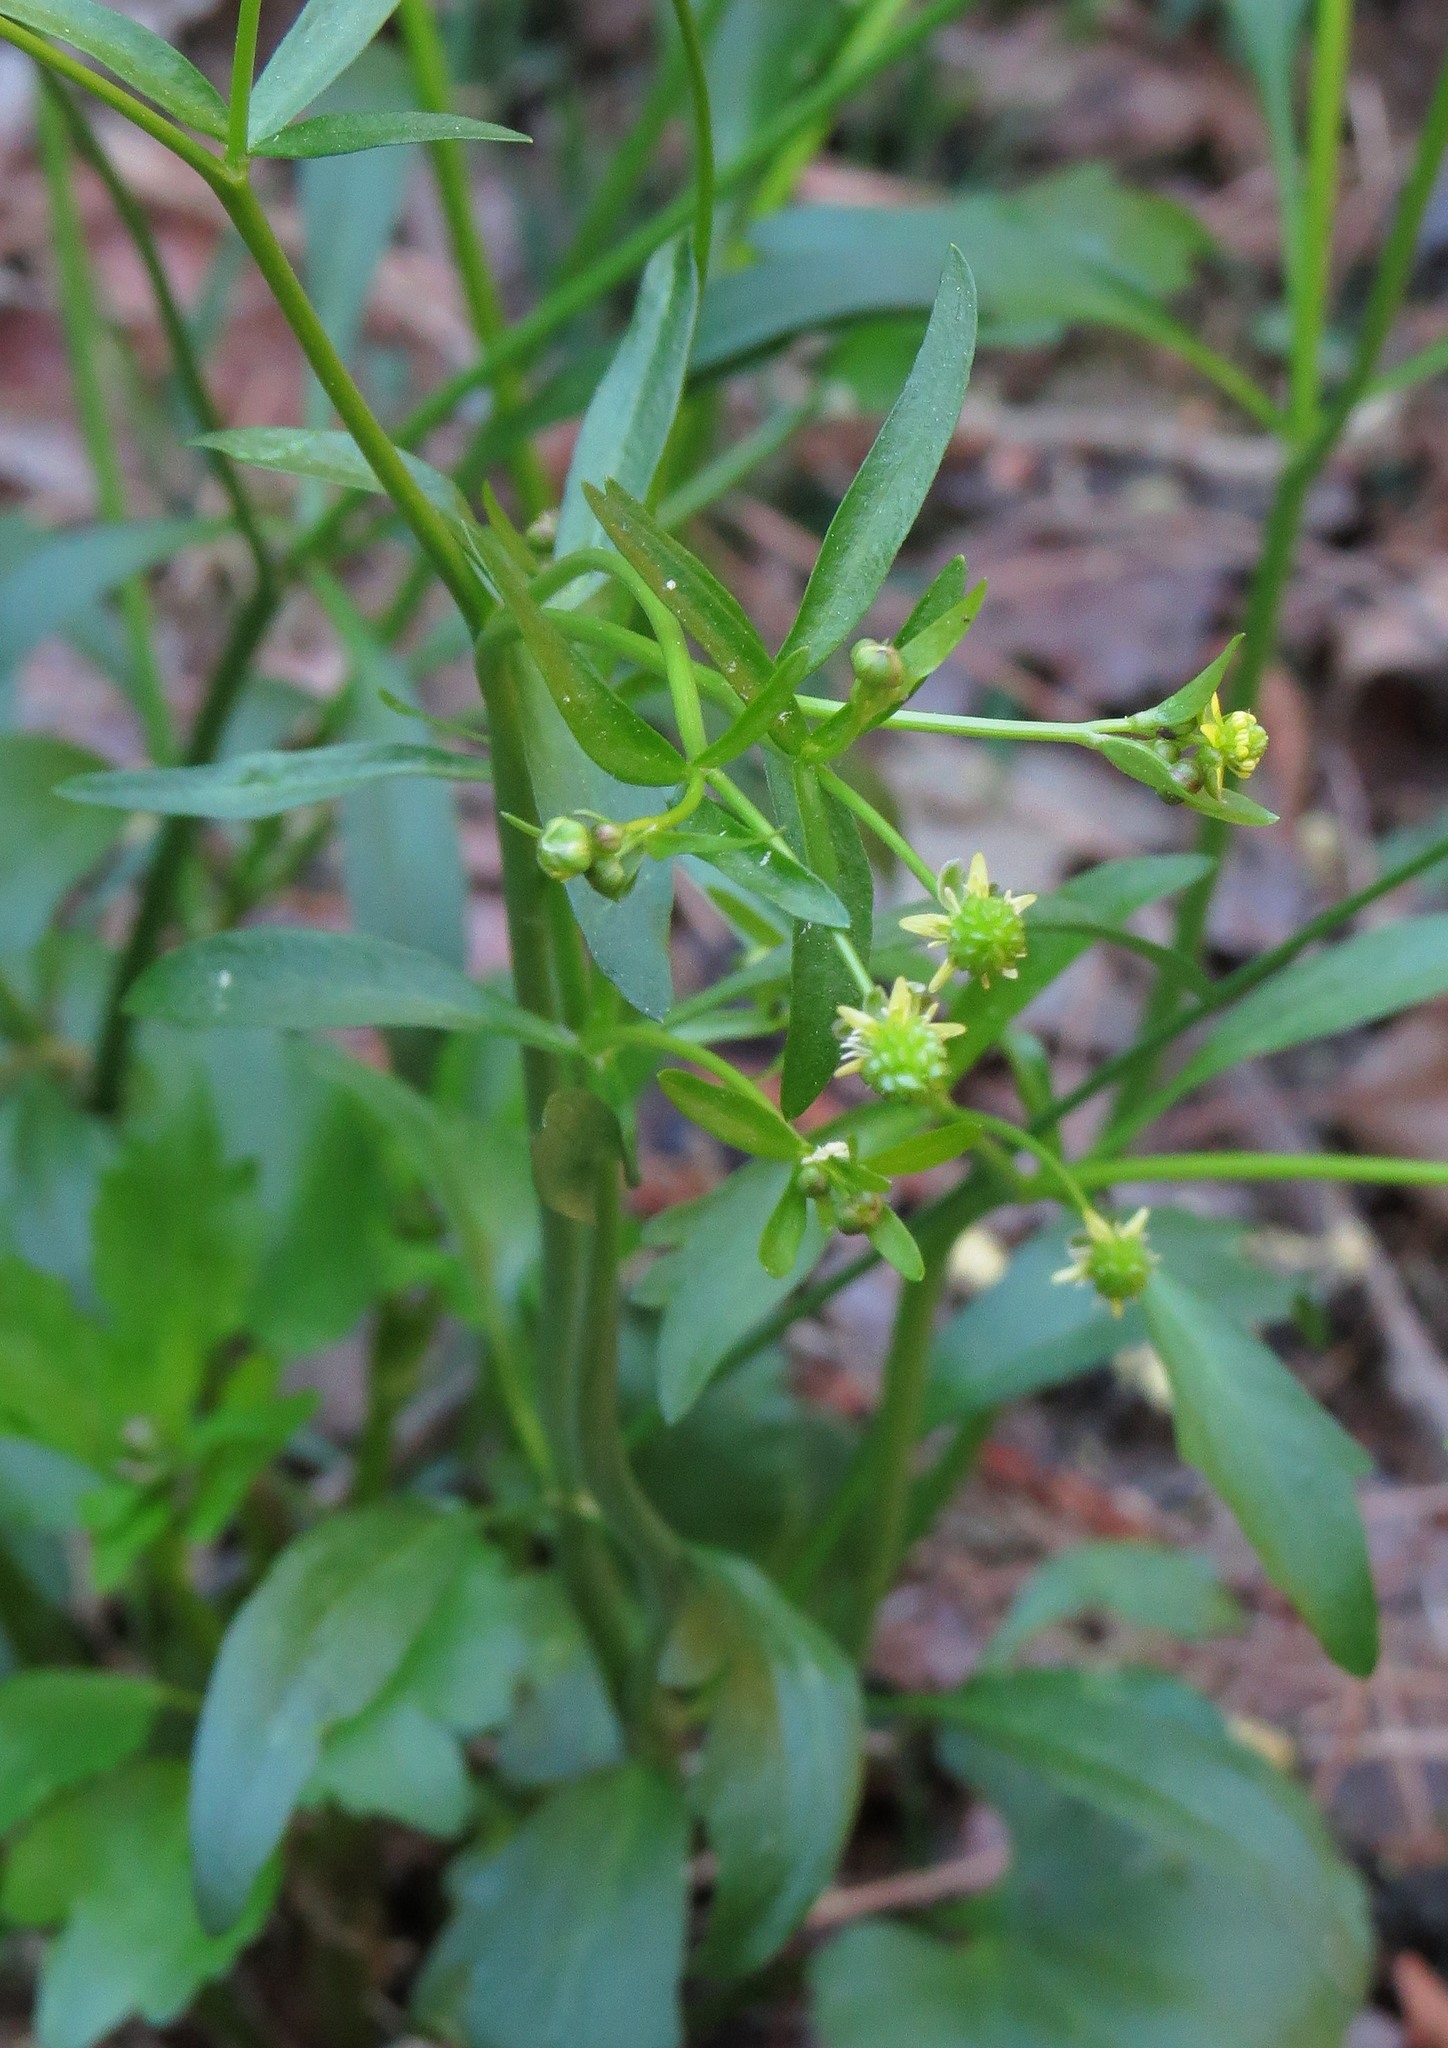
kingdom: Plantae
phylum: Tracheophyta
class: Magnoliopsida
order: Ranunculales
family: Ranunculaceae
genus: Ranunculus
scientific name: Ranunculus abortivus
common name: Early wood buttercup
